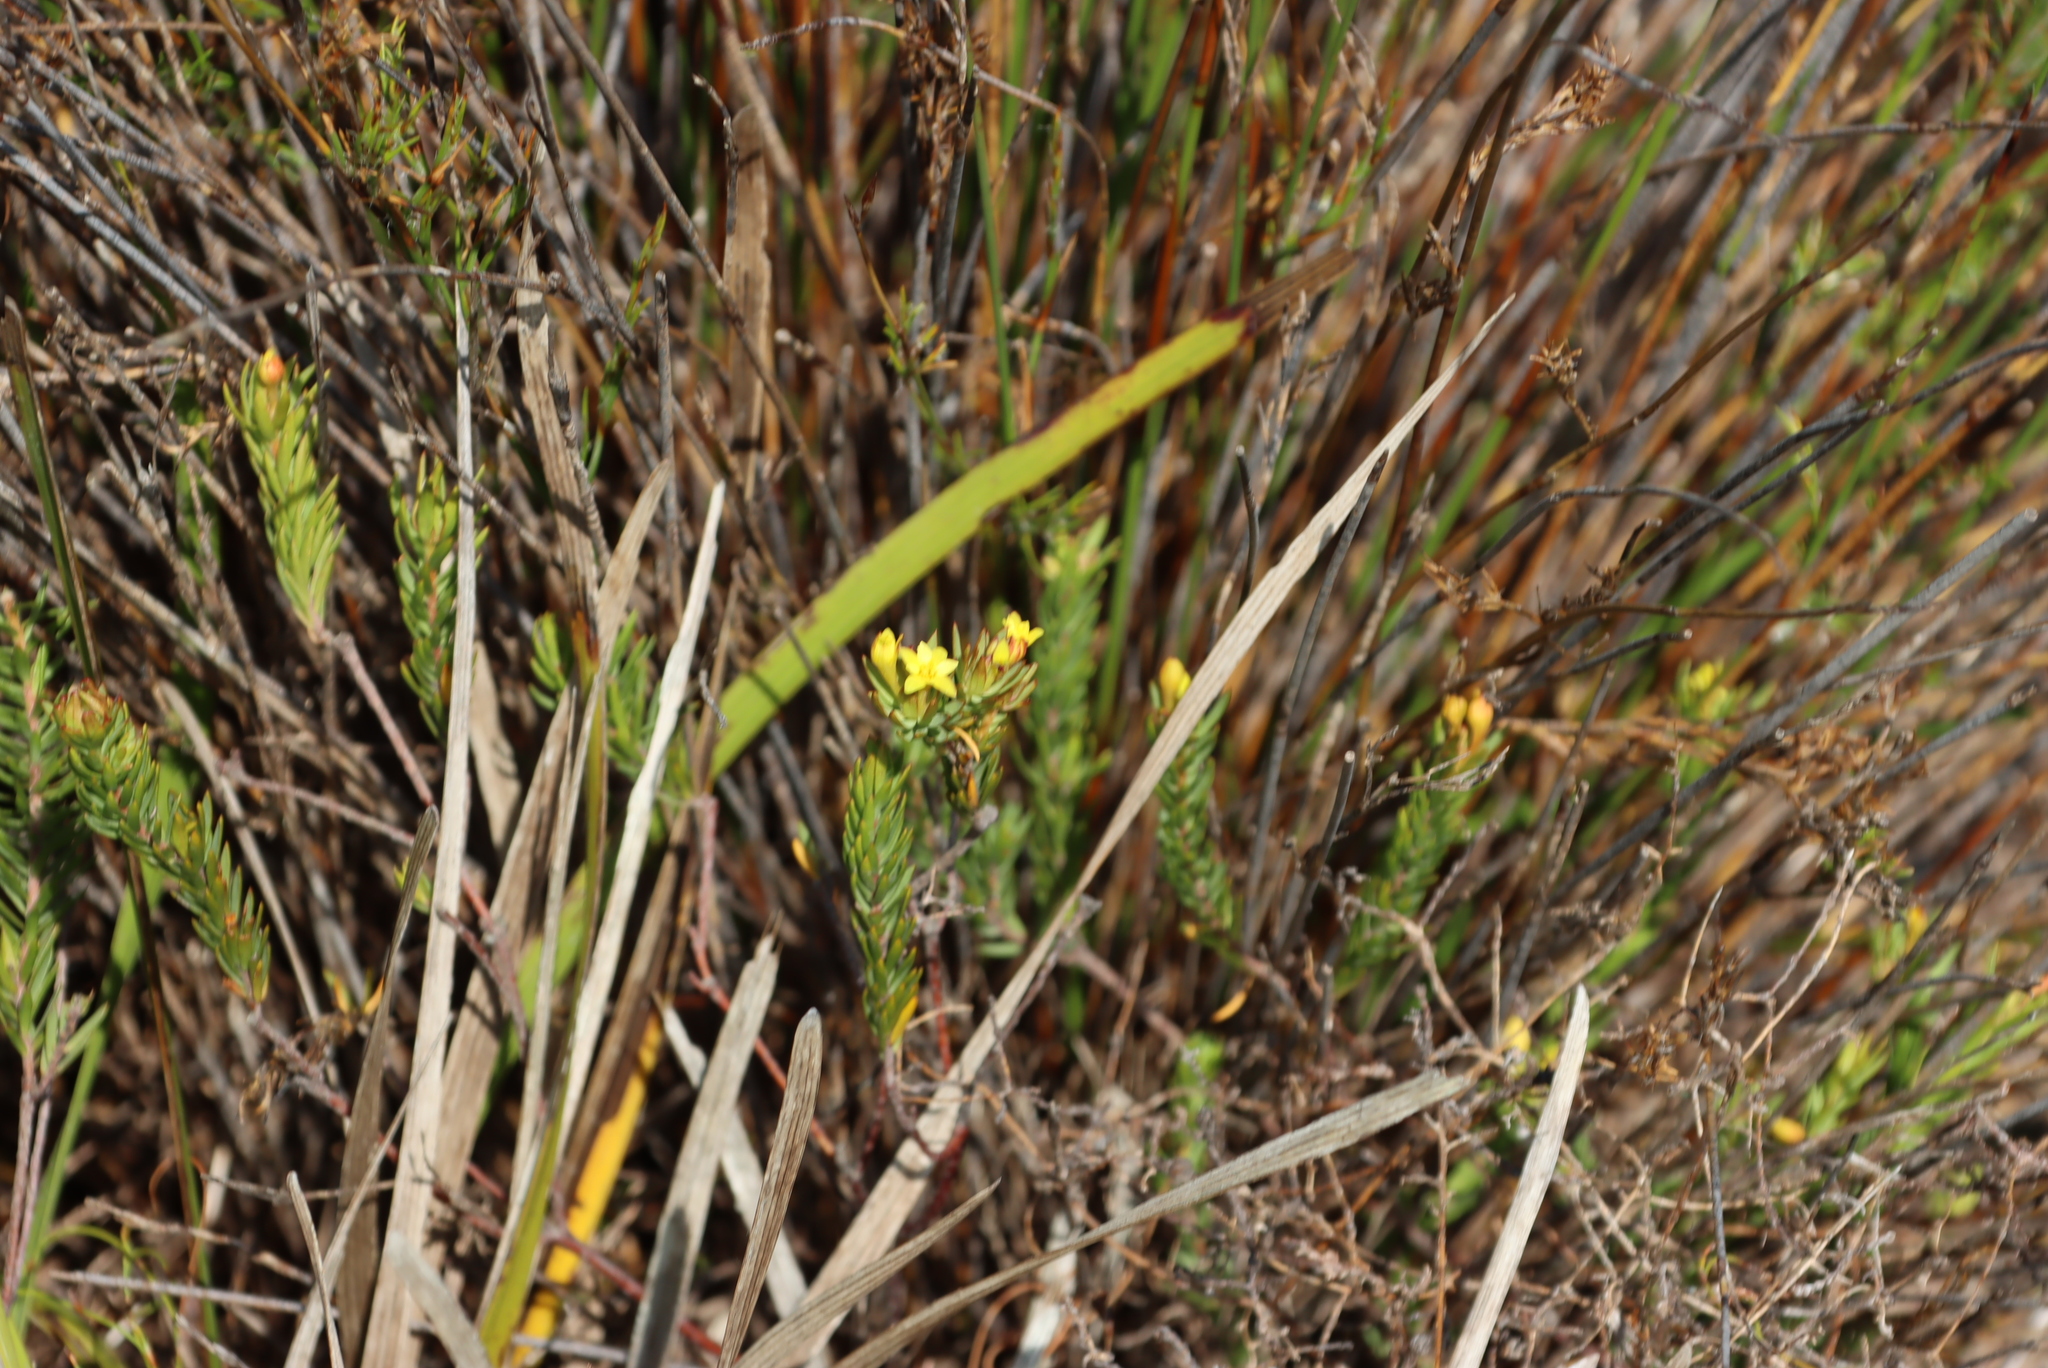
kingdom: Plantae
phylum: Tracheophyta
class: Magnoliopsida
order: Malvales
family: Thymelaeaceae
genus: Gnidia
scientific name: Gnidia juniperifolia
